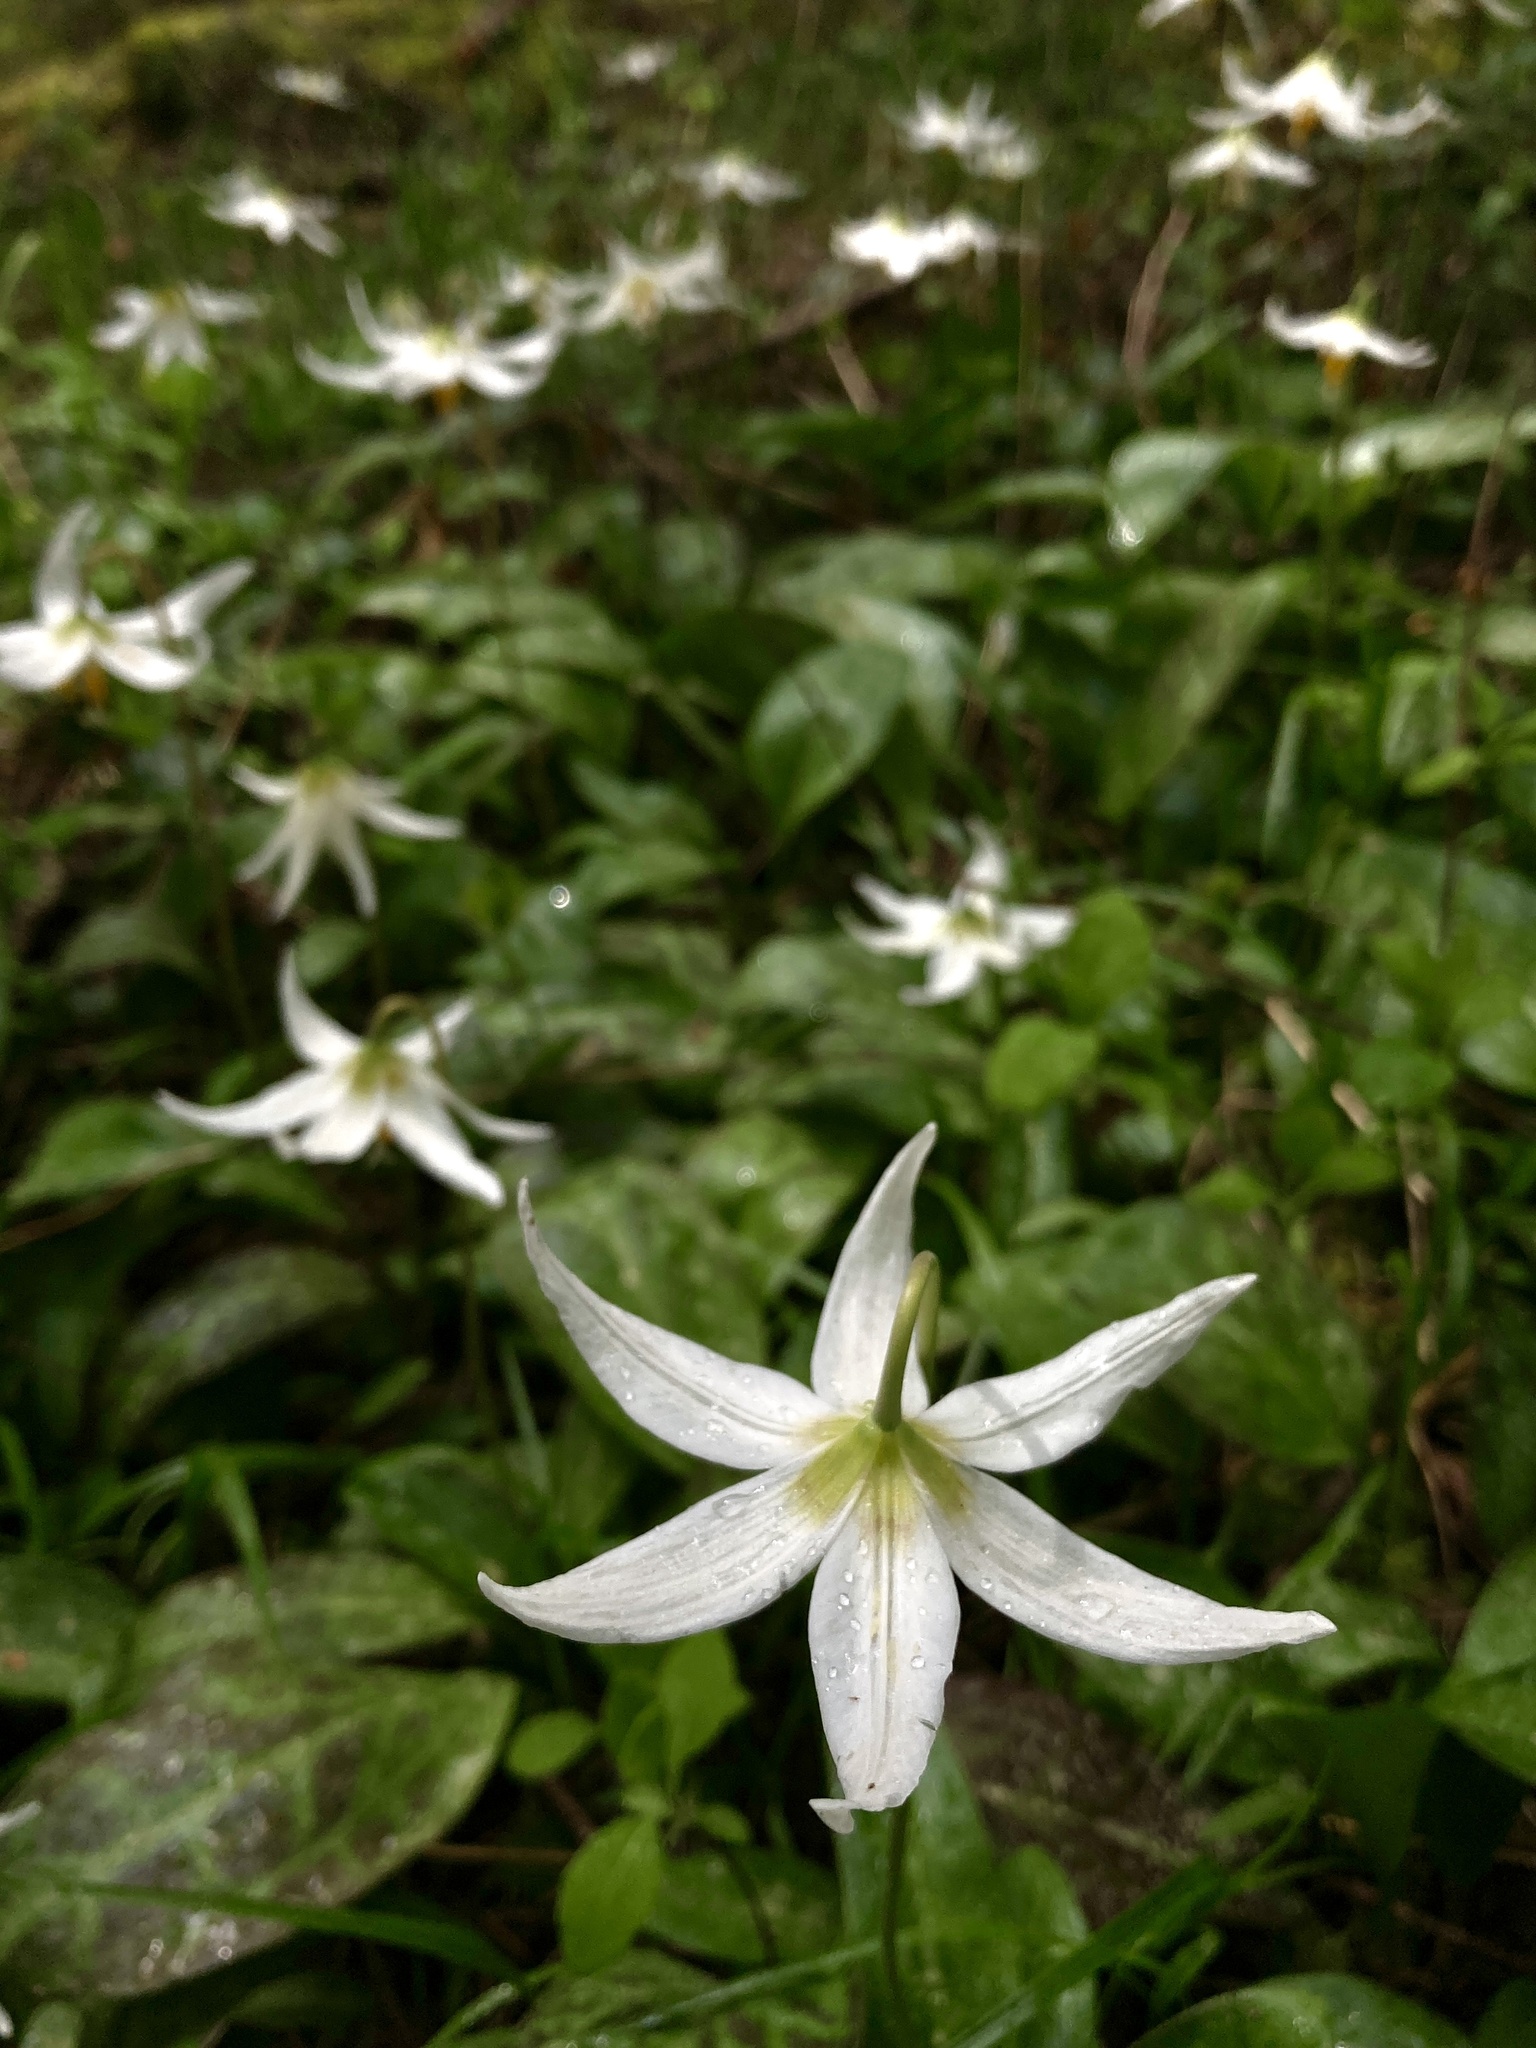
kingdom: Plantae
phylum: Tracheophyta
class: Liliopsida
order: Liliales
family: Liliaceae
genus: Erythronium
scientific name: Erythronium oregonum
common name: Giant adder's-tongue
